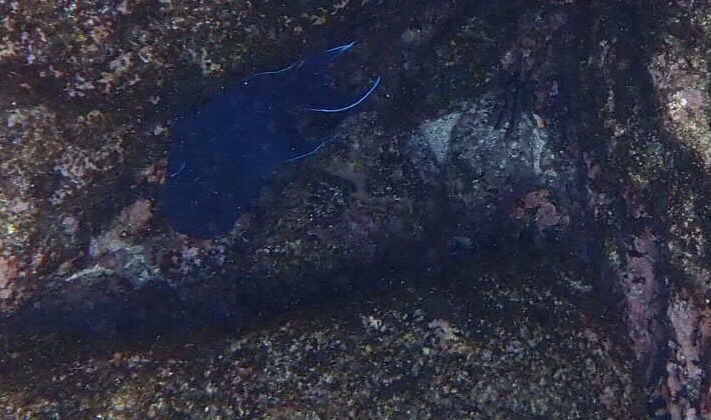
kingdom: Animalia
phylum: Chordata
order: Perciformes
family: Pomacentridae
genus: Microspathodon
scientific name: Microspathodon dorsalis
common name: Giant damselfish
